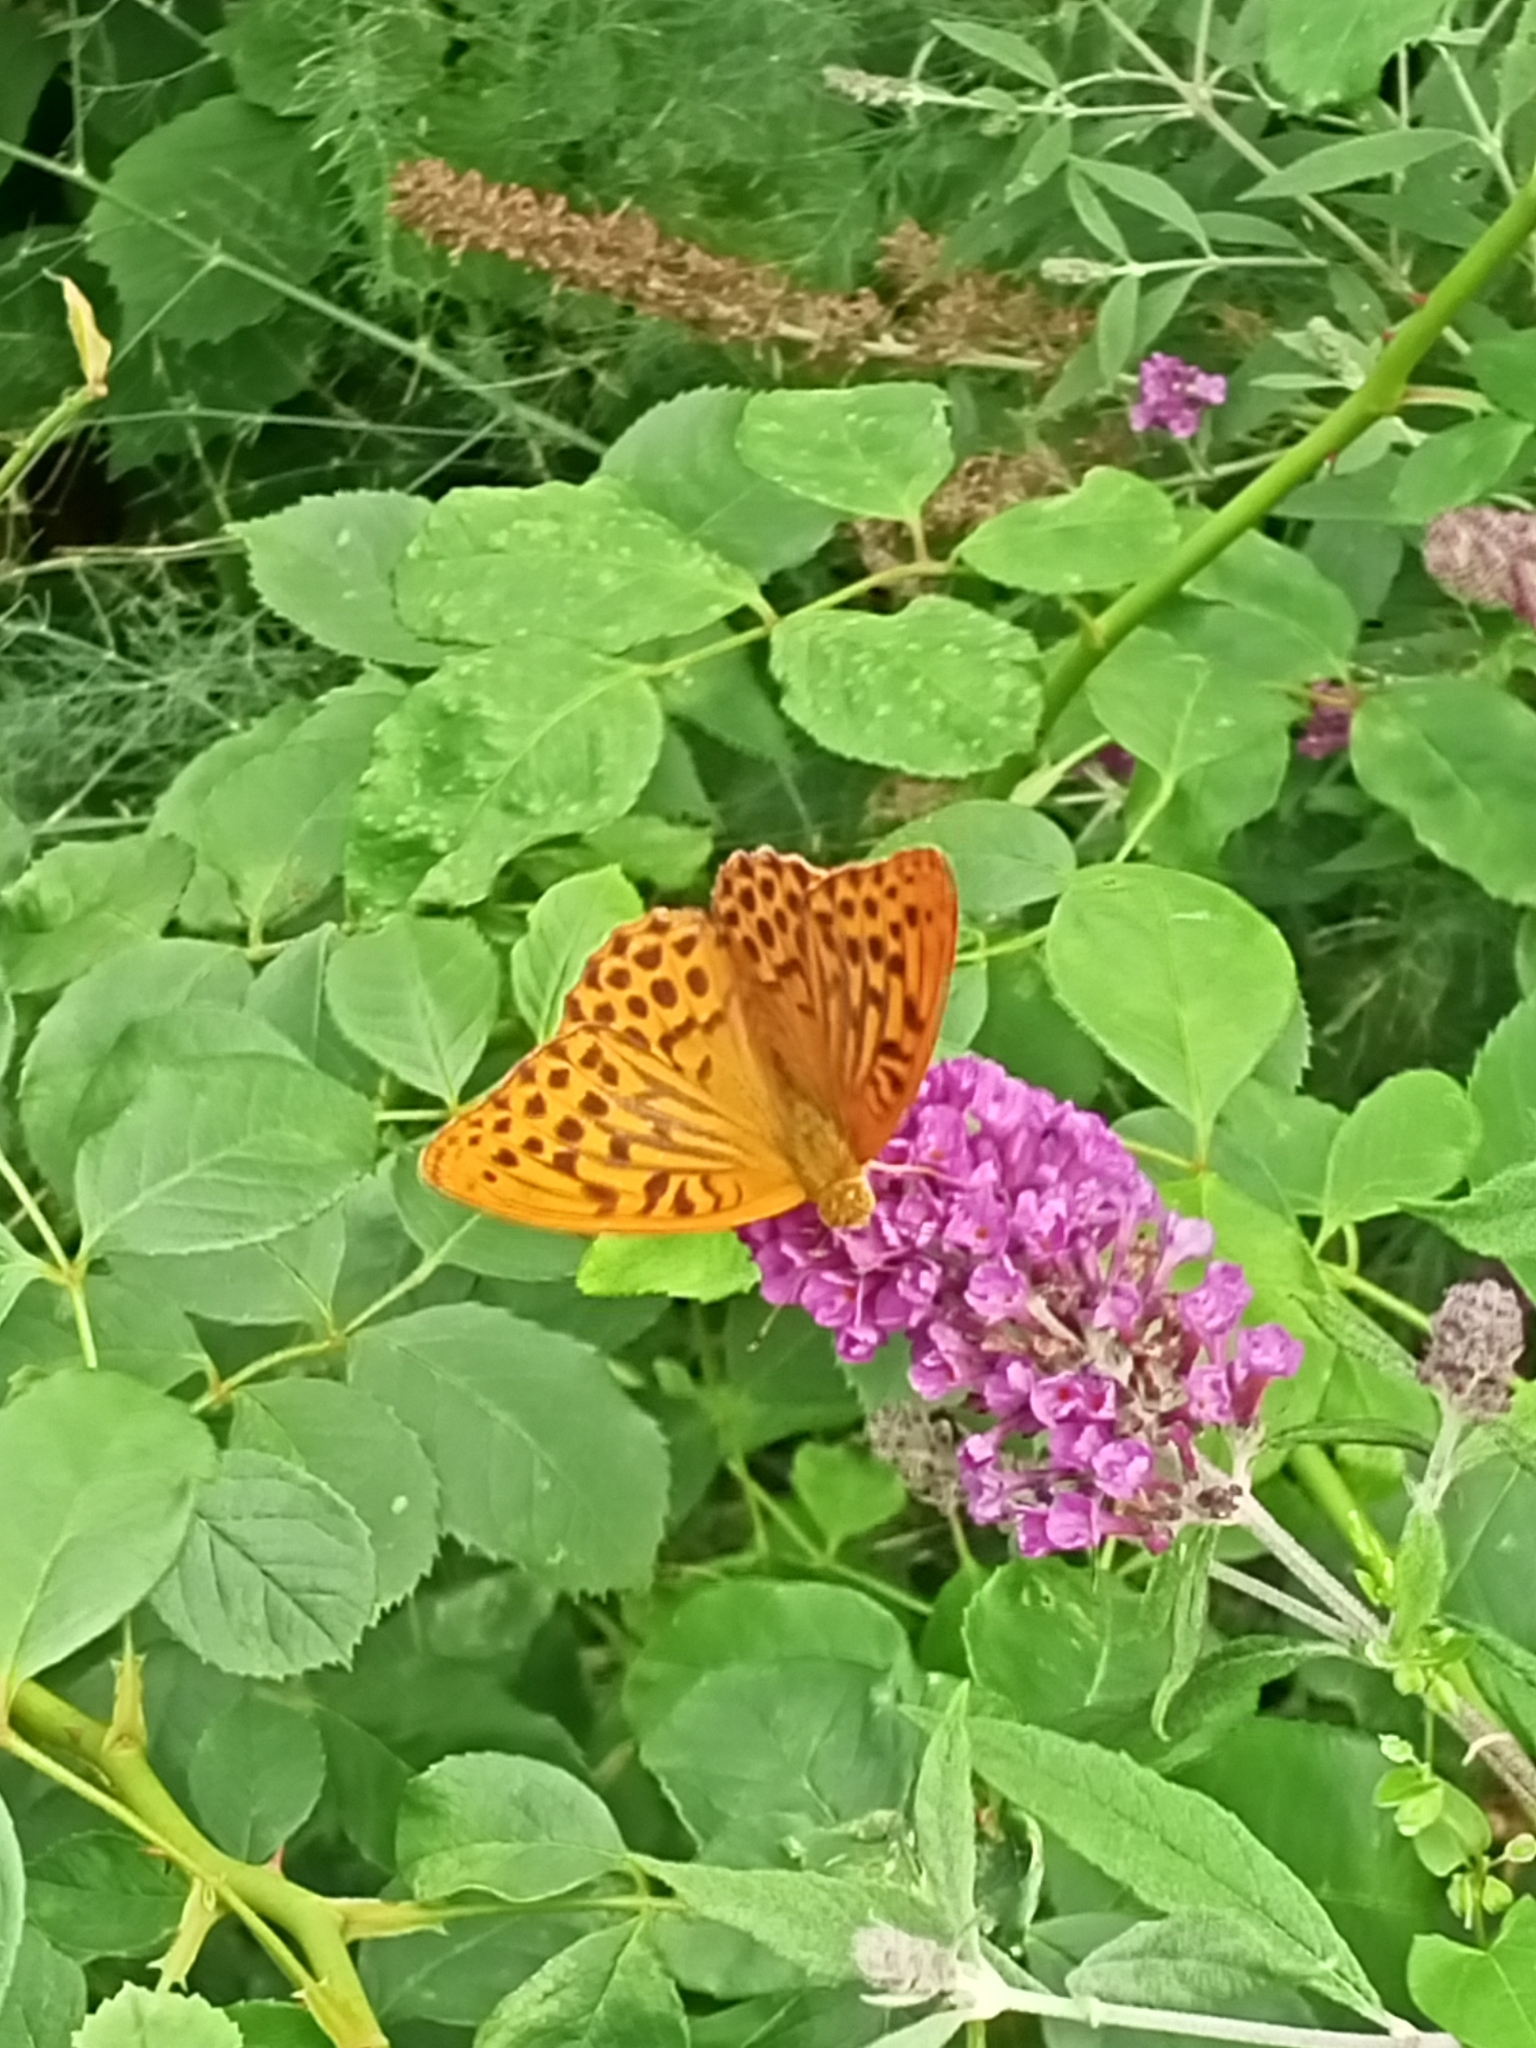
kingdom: Animalia
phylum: Arthropoda
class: Insecta
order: Lepidoptera
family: Nymphalidae
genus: Argynnis
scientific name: Argynnis paphia
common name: Silver-washed fritillary
